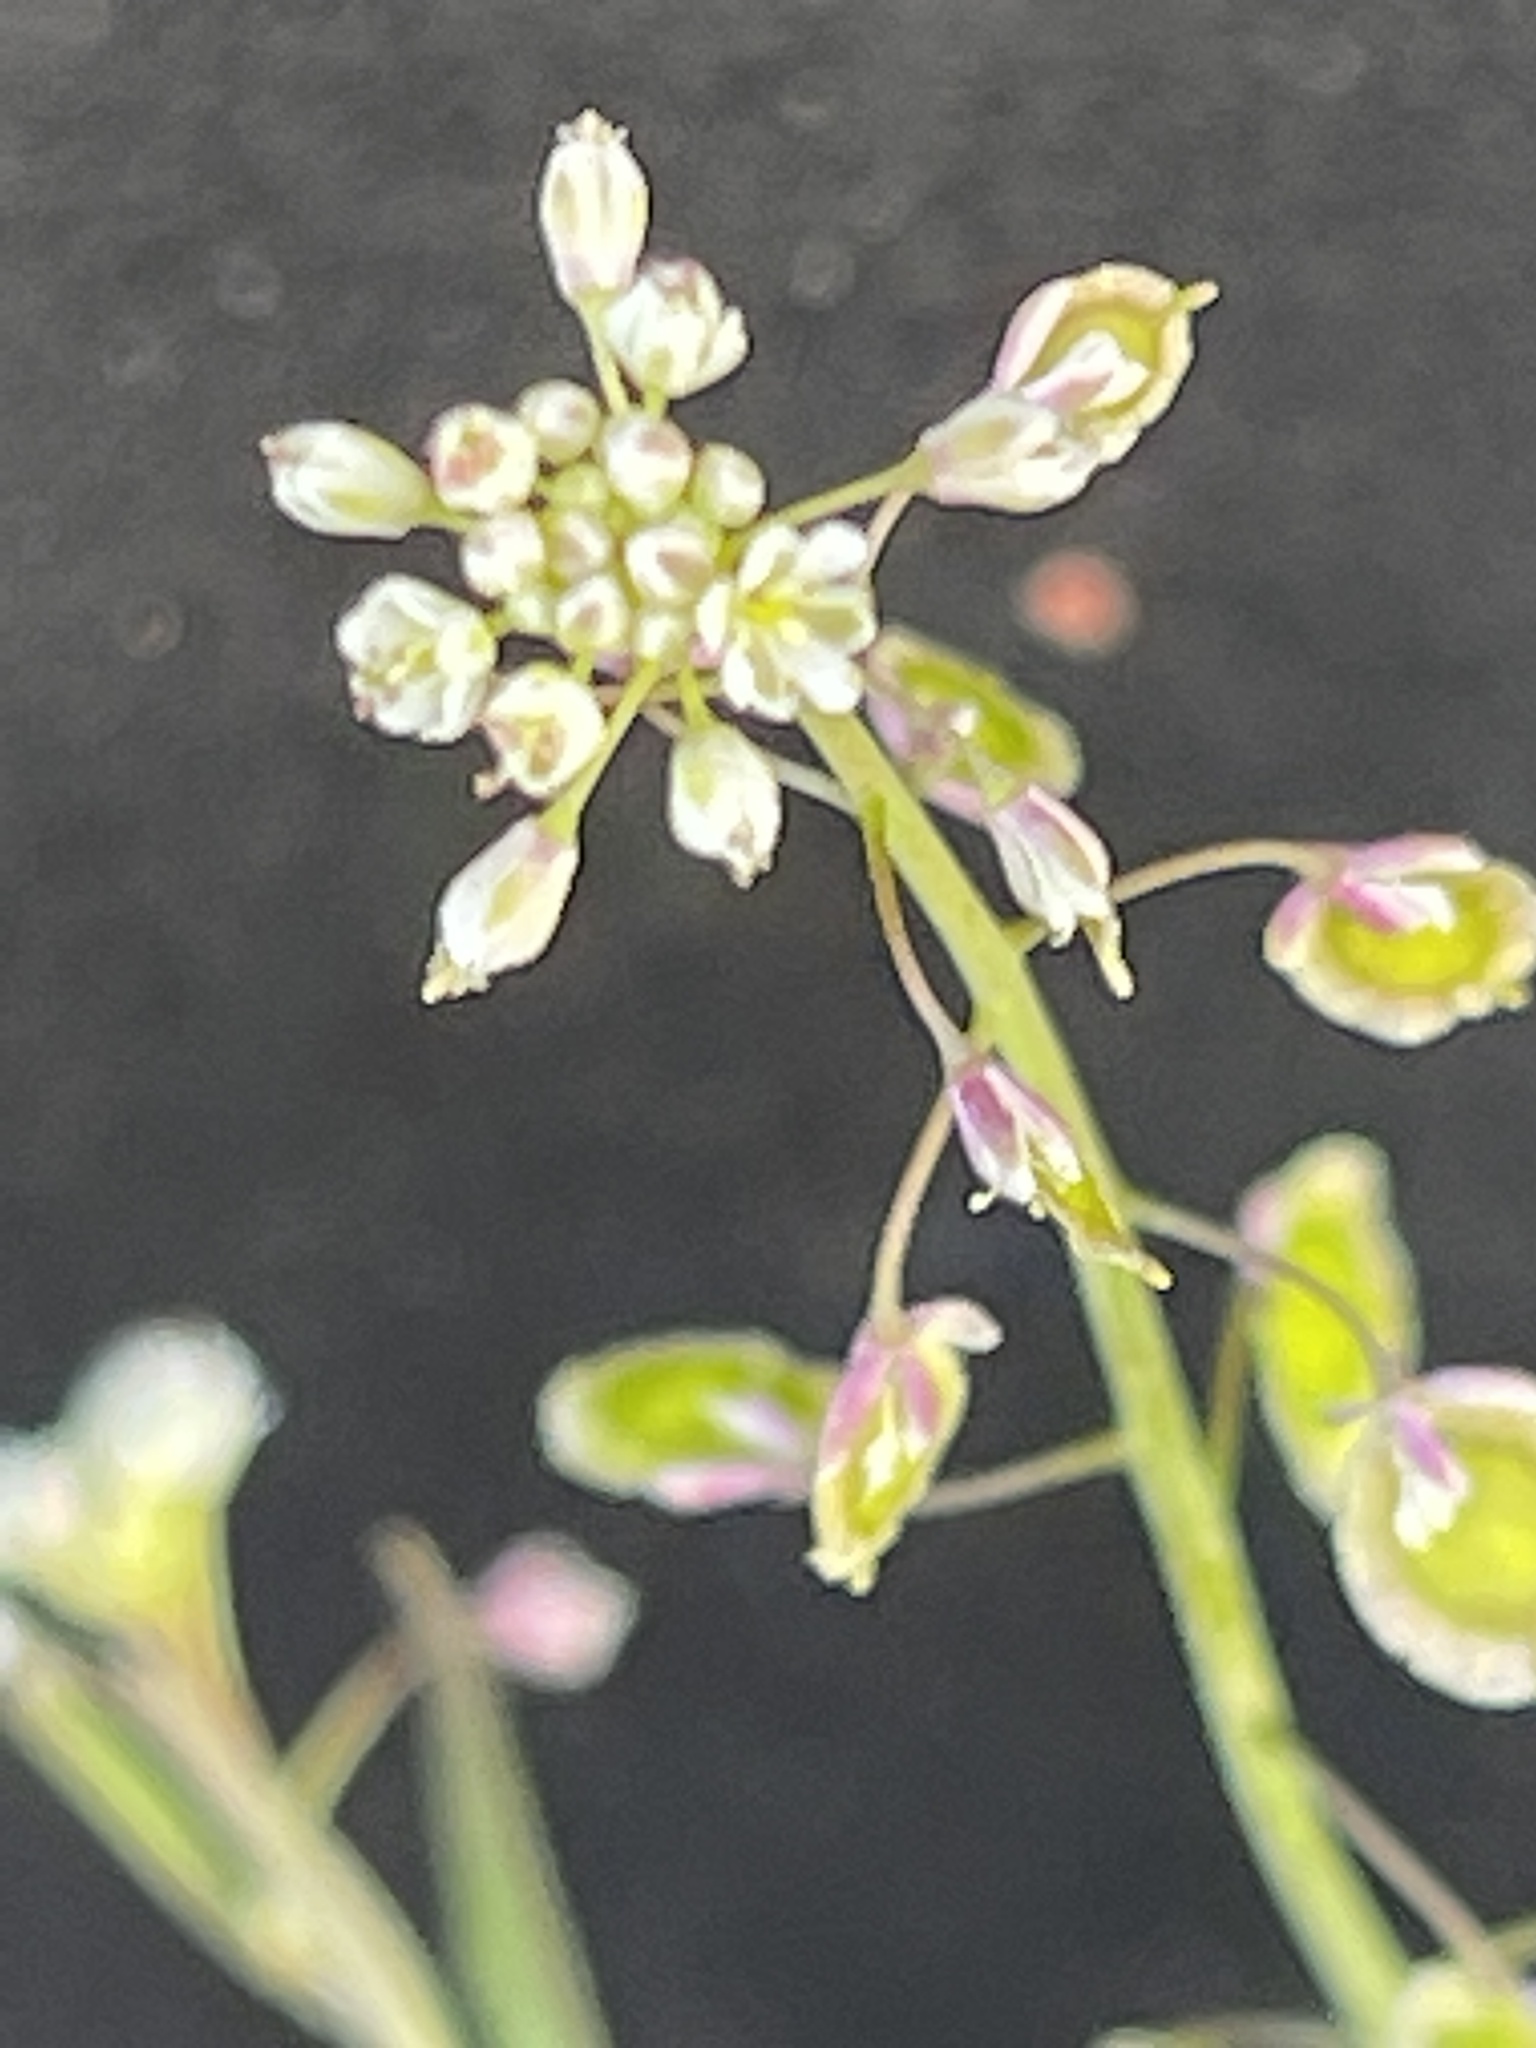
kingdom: Plantae
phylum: Tracheophyta
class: Magnoliopsida
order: Brassicales
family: Brassicaceae
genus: Thysanocarpus
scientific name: Thysanocarpus curvipes
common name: Sand fringepod
